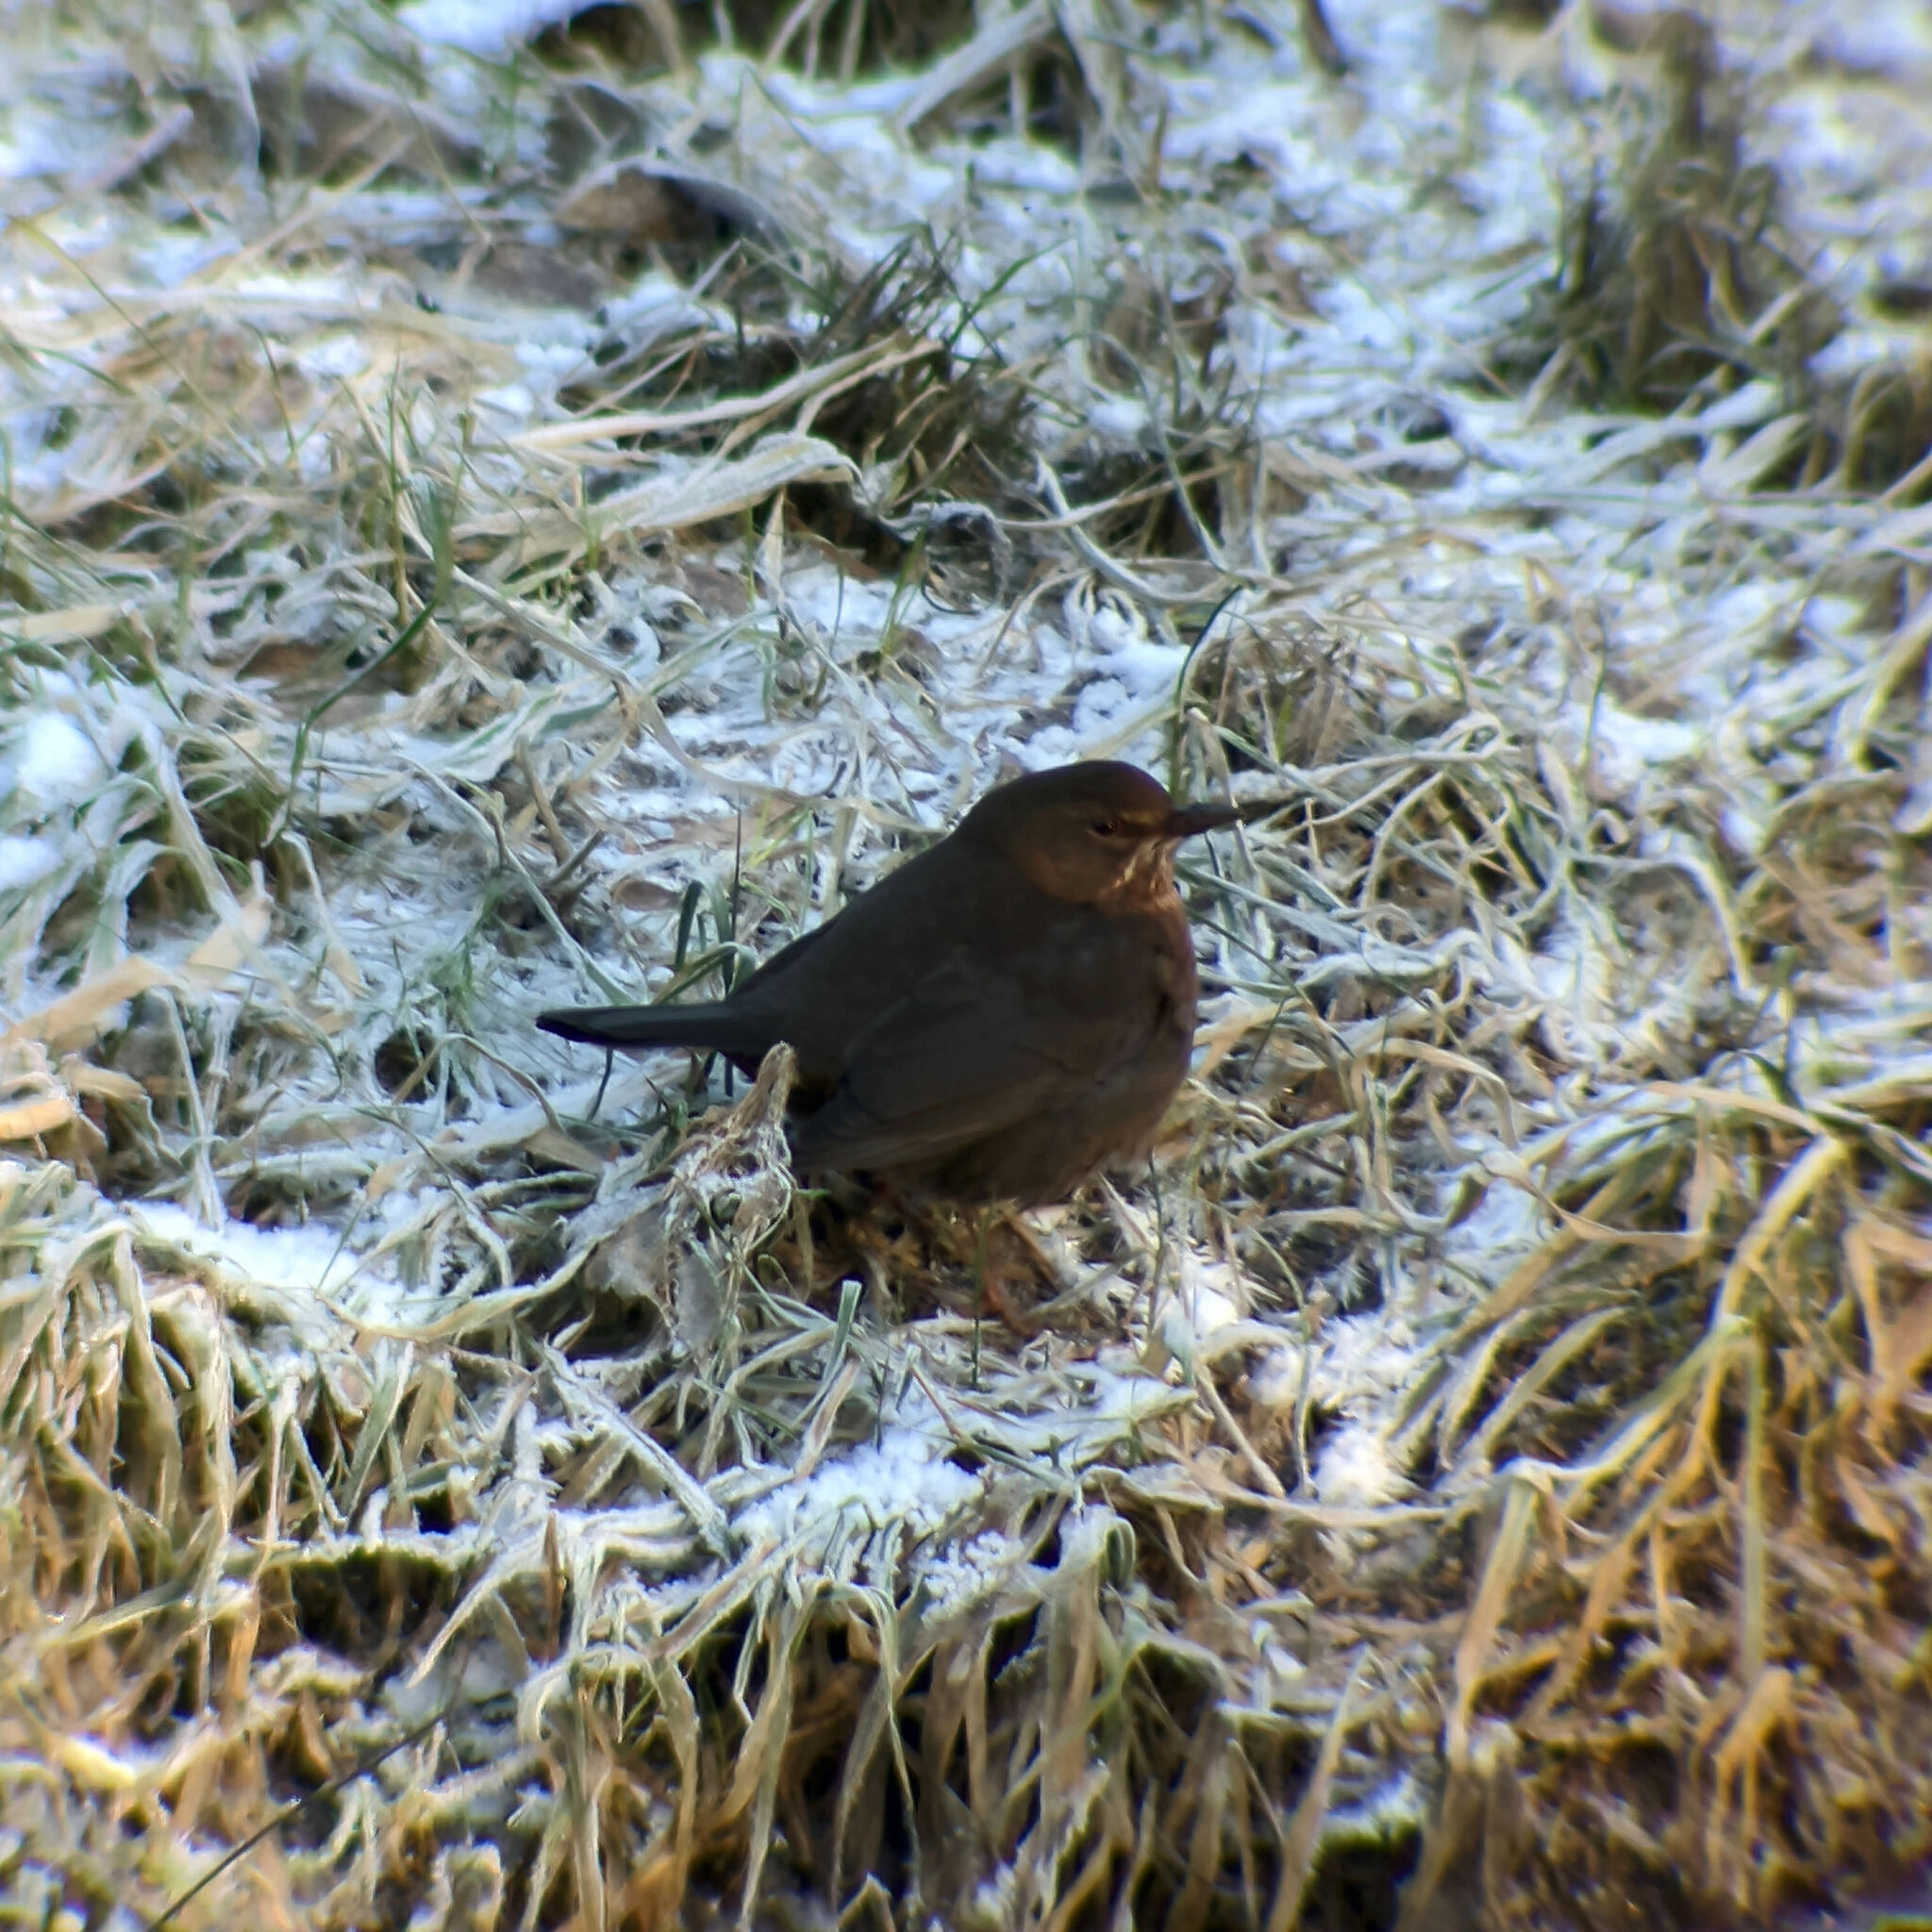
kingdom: Animalia
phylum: Chordata
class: Aves
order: Passeriformes
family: Turdidae
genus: Turdus
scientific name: Turdus merula
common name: Common blackbird
